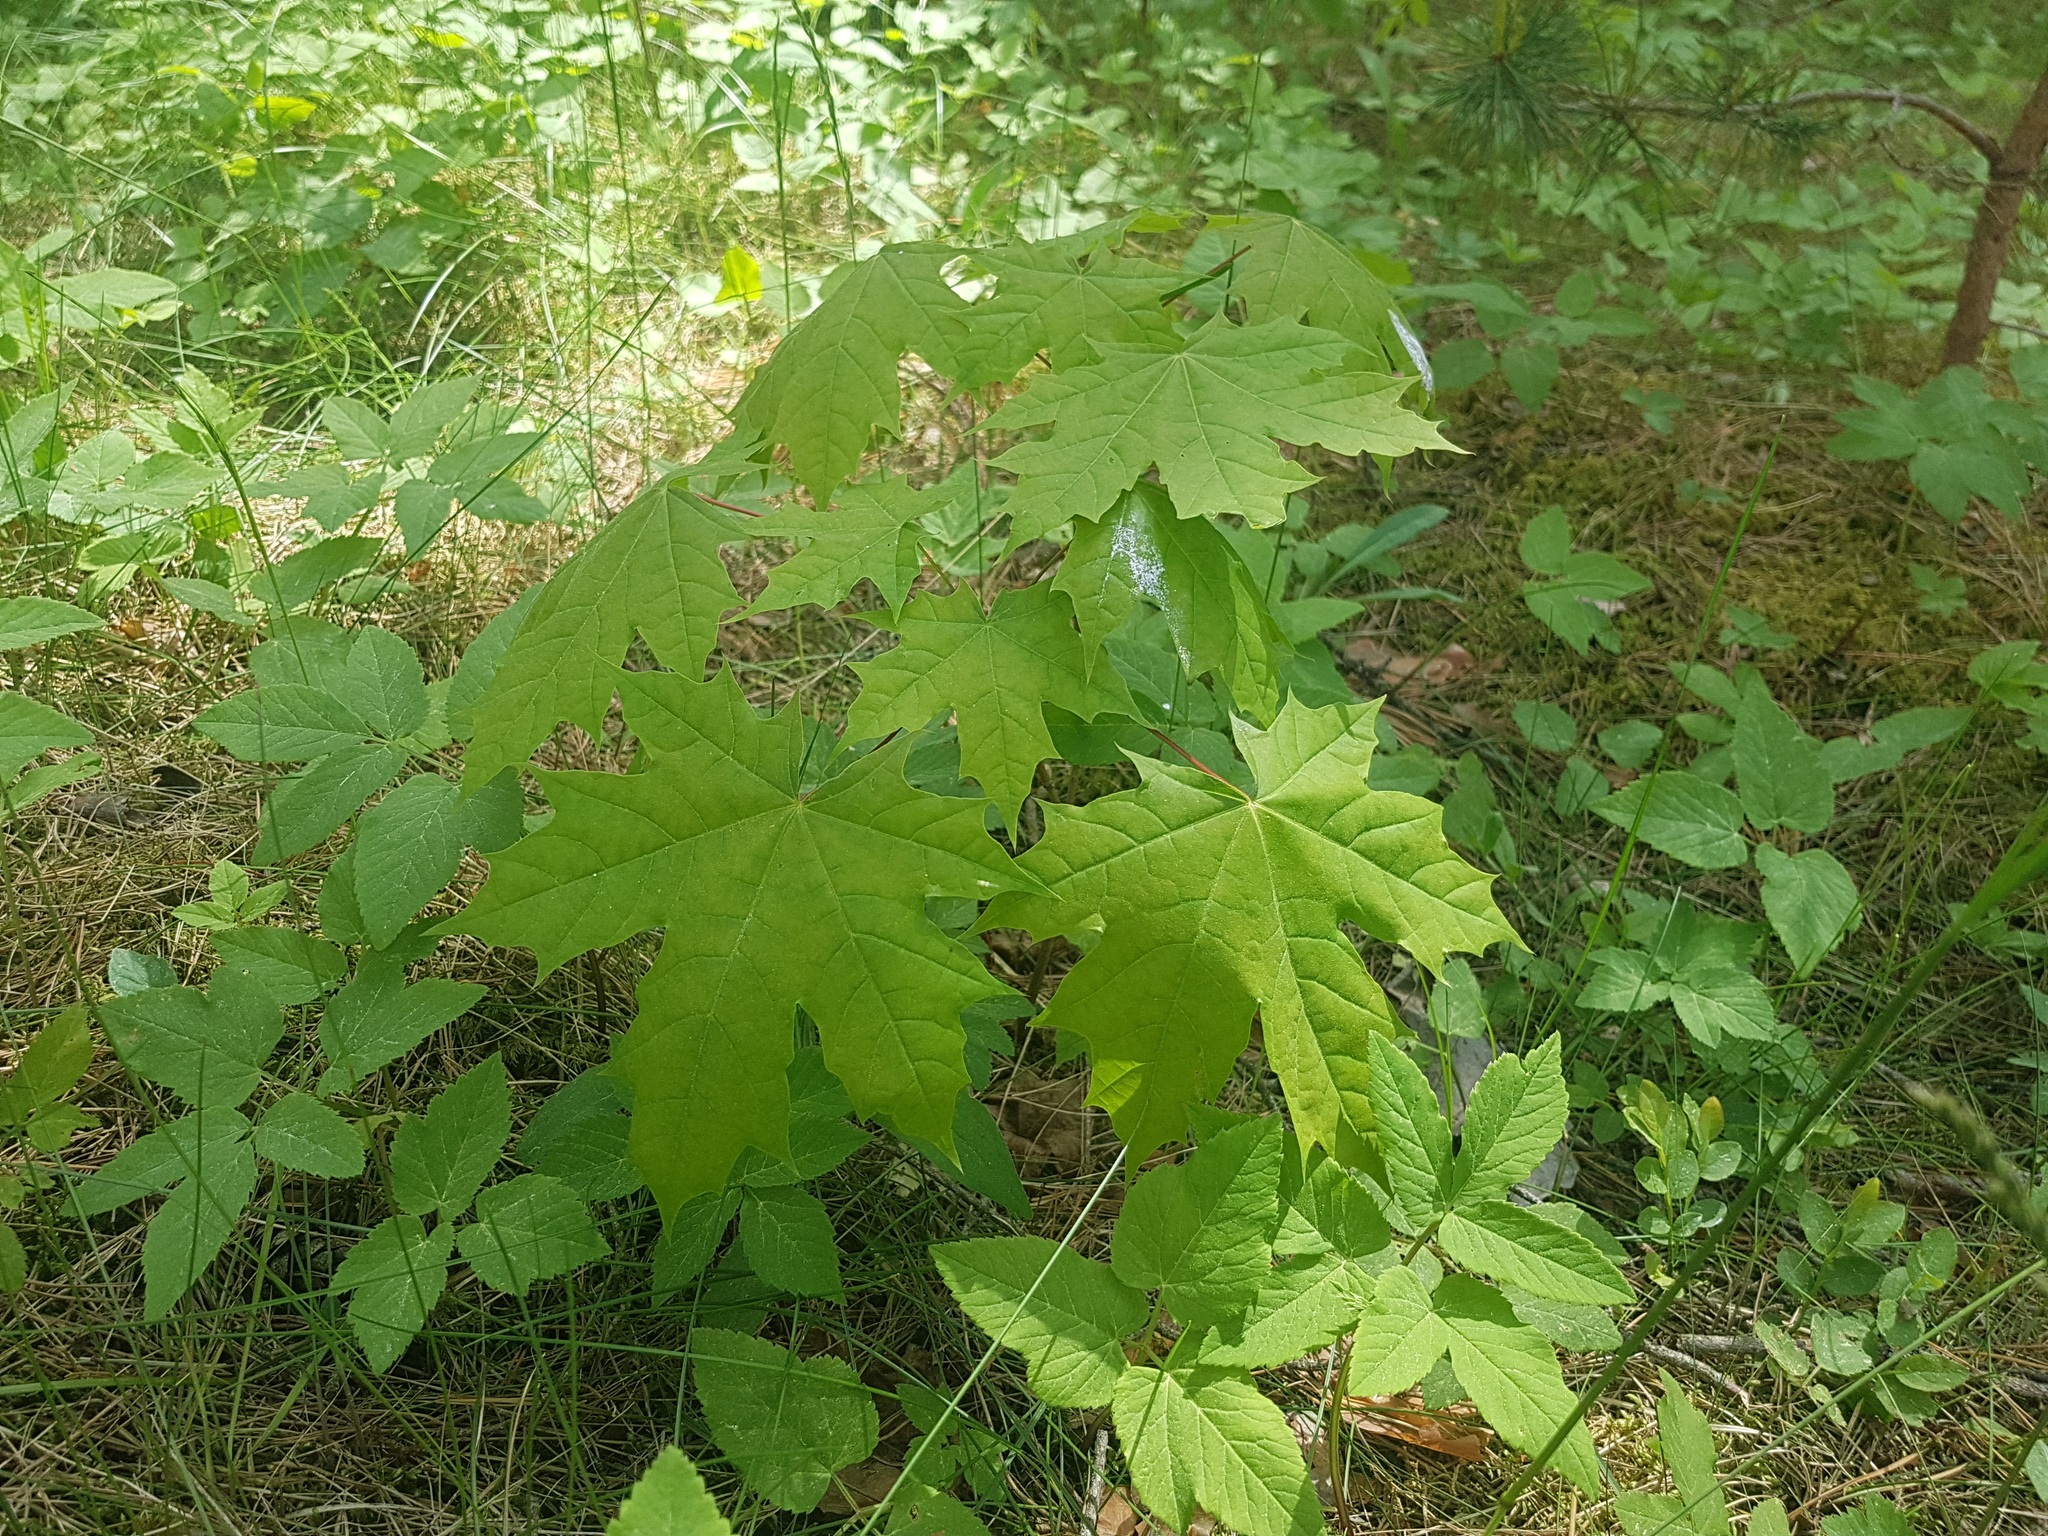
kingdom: Plantae
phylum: Tracheophyta
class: Magnoliopsida
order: Sapindales
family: Sapindaceae
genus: Acer
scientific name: Acer platanoides
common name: Norway maple
